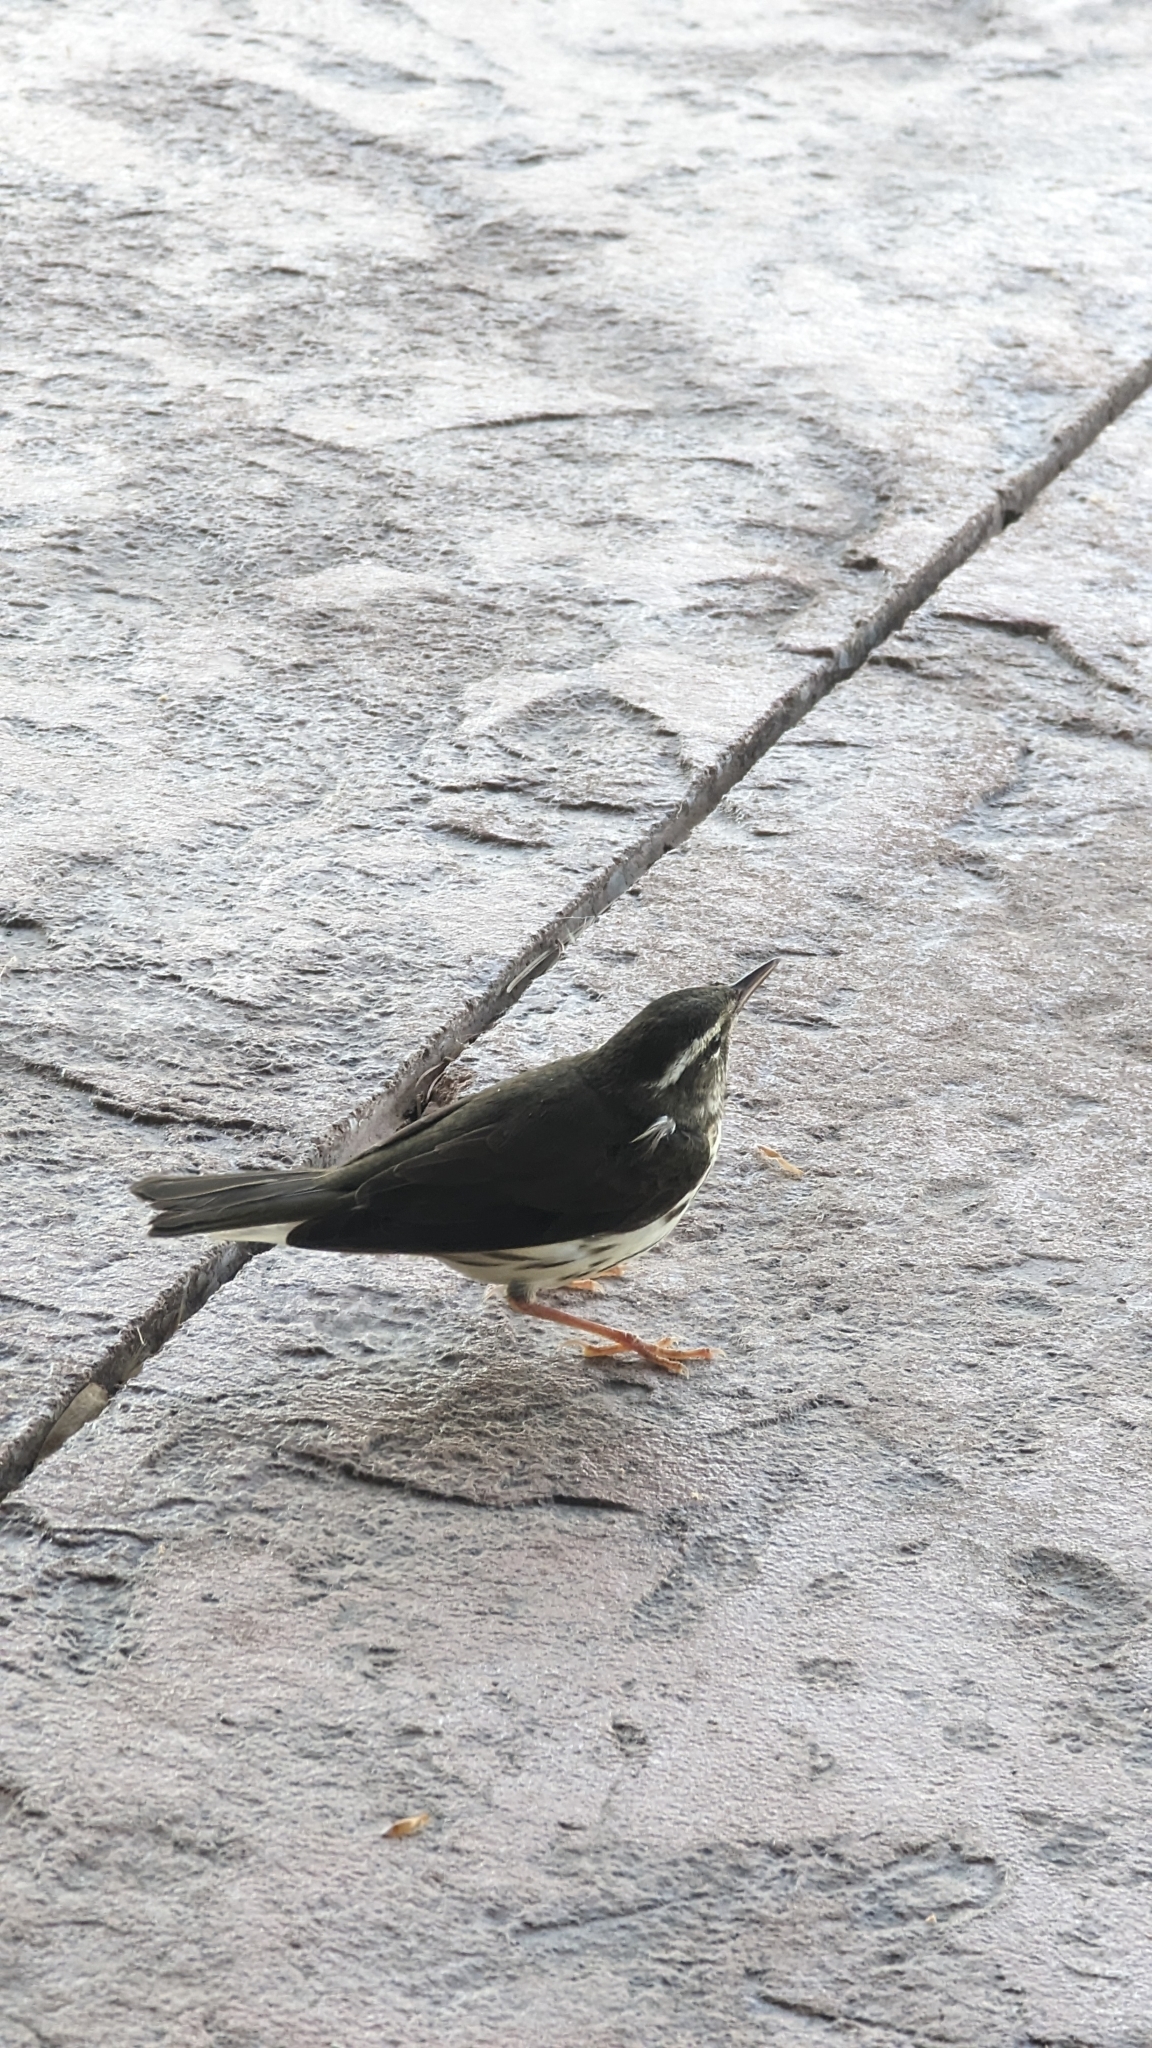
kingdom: Animalia
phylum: Chordata
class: Aves
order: Passeriformes
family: Parulidae
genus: Parkesia
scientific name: Parkesia motacilla
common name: Louisiana waterthrush
